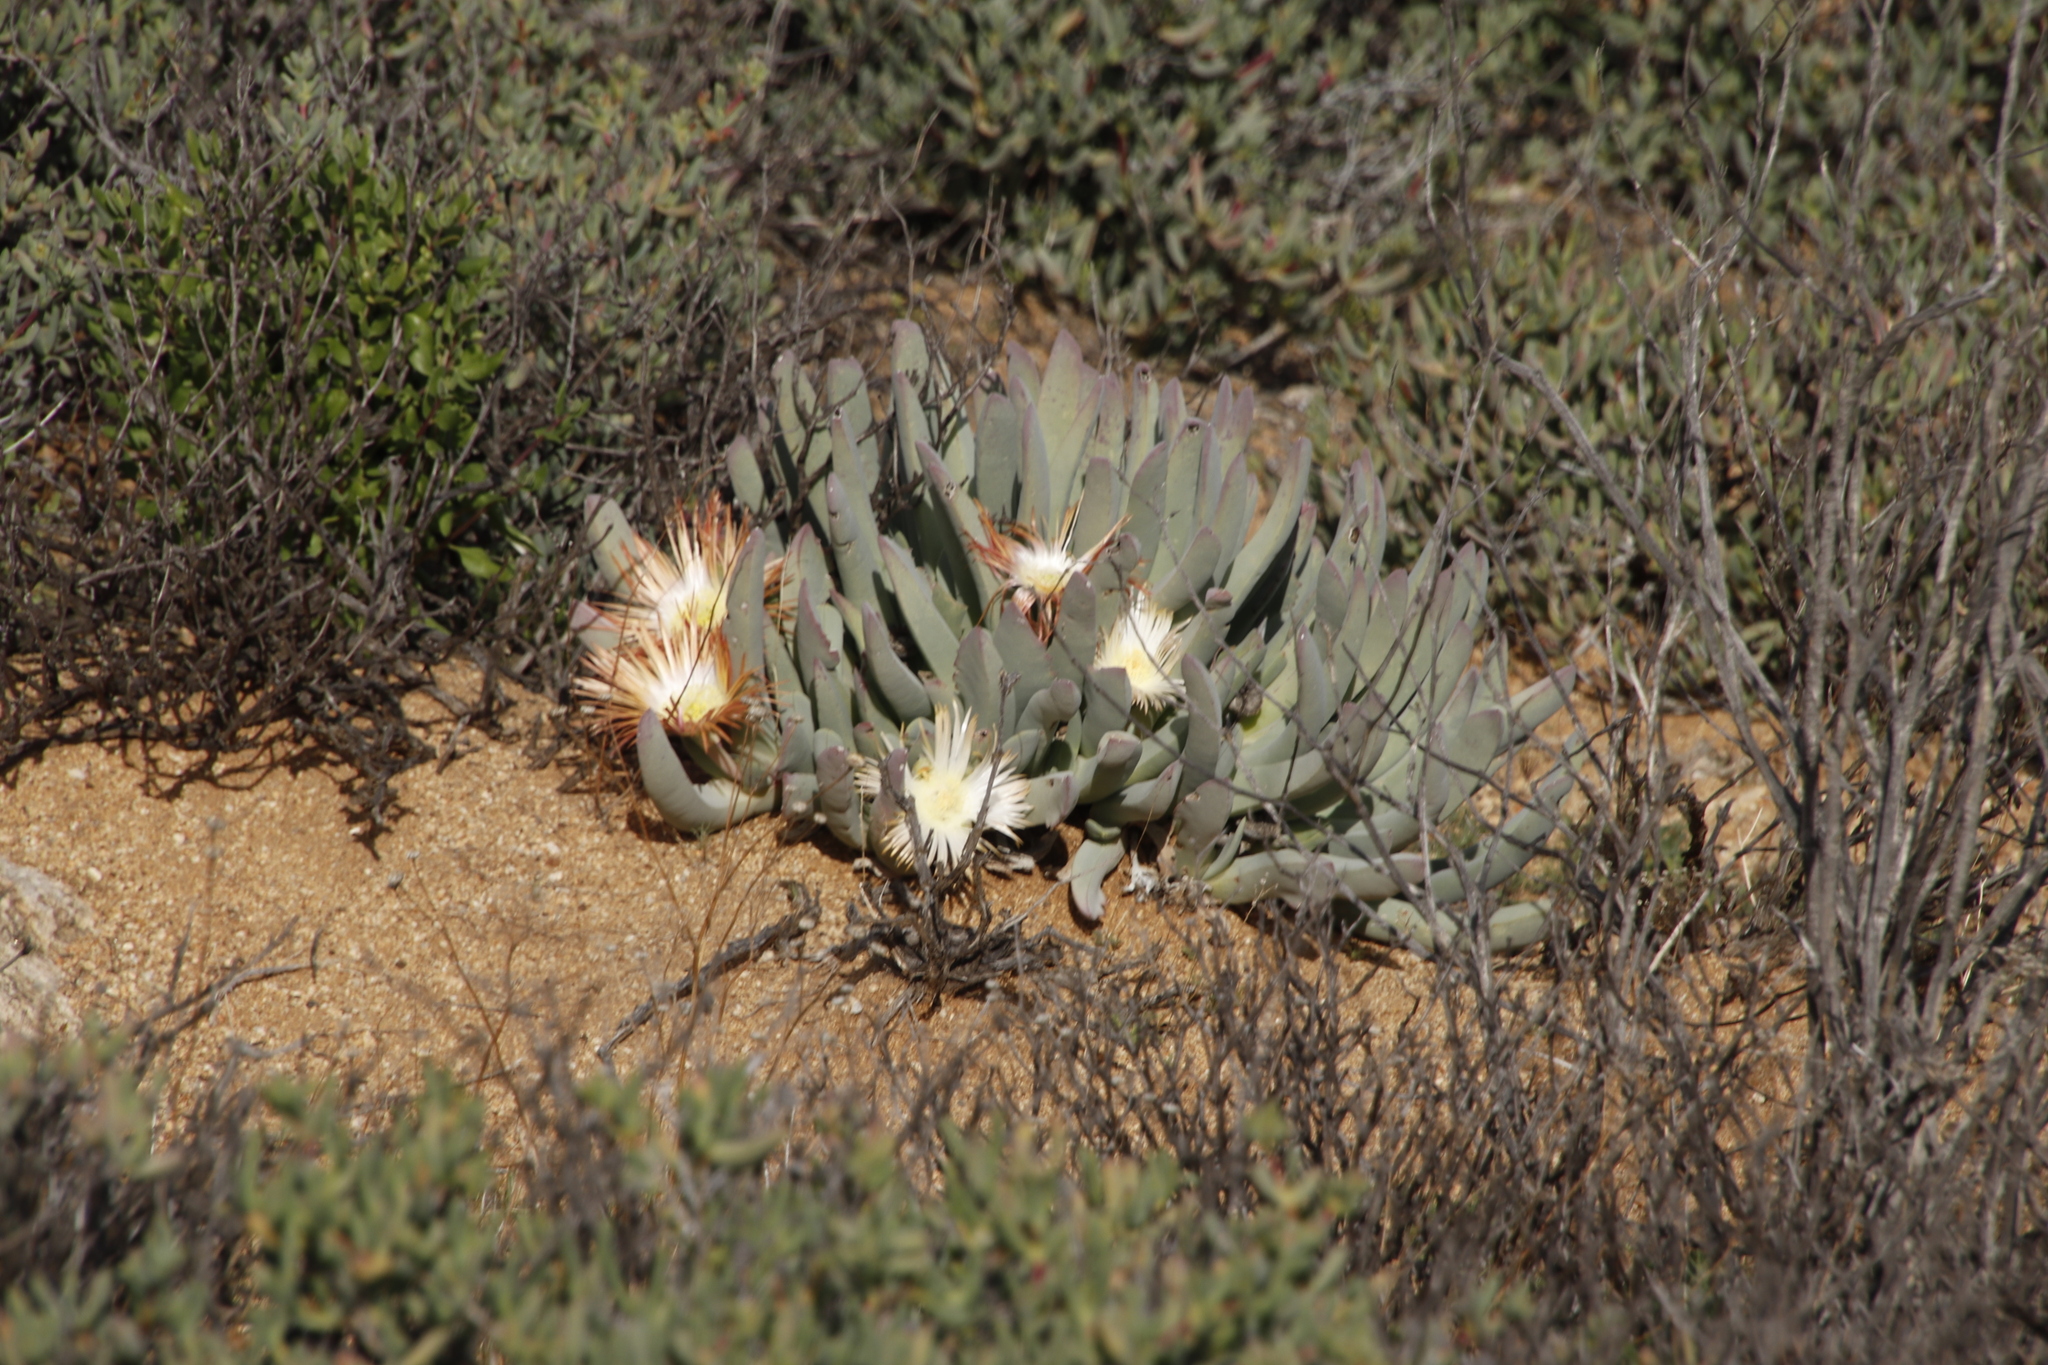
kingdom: Plantae
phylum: Tracheophyta
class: Magnoliopsida
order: Caryophyllales
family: Aizoaceae
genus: Cheiridopsis
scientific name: Cheiridopsis denticulata
